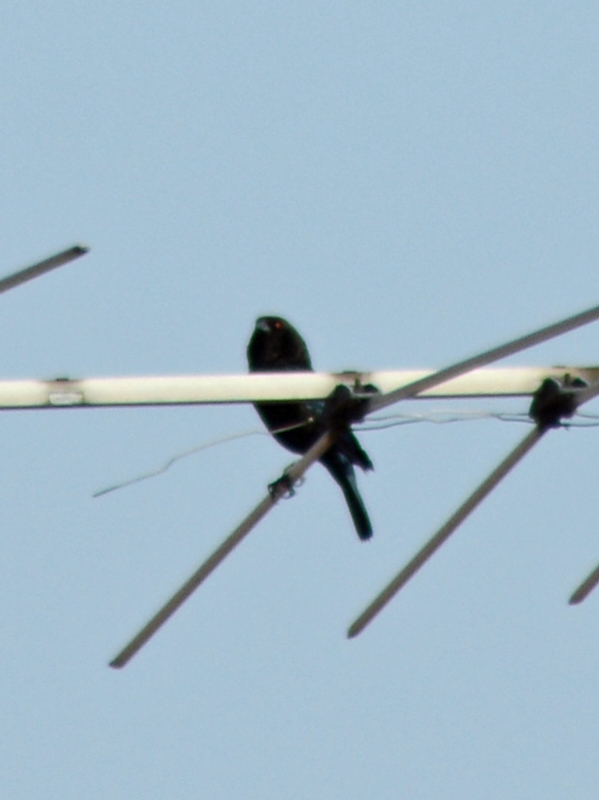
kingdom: Animalia
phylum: Chordata
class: Aves
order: Passeriformes
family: Icteridae
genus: Molothrus
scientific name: Molothrus aeneus
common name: Bronzed cowbird
